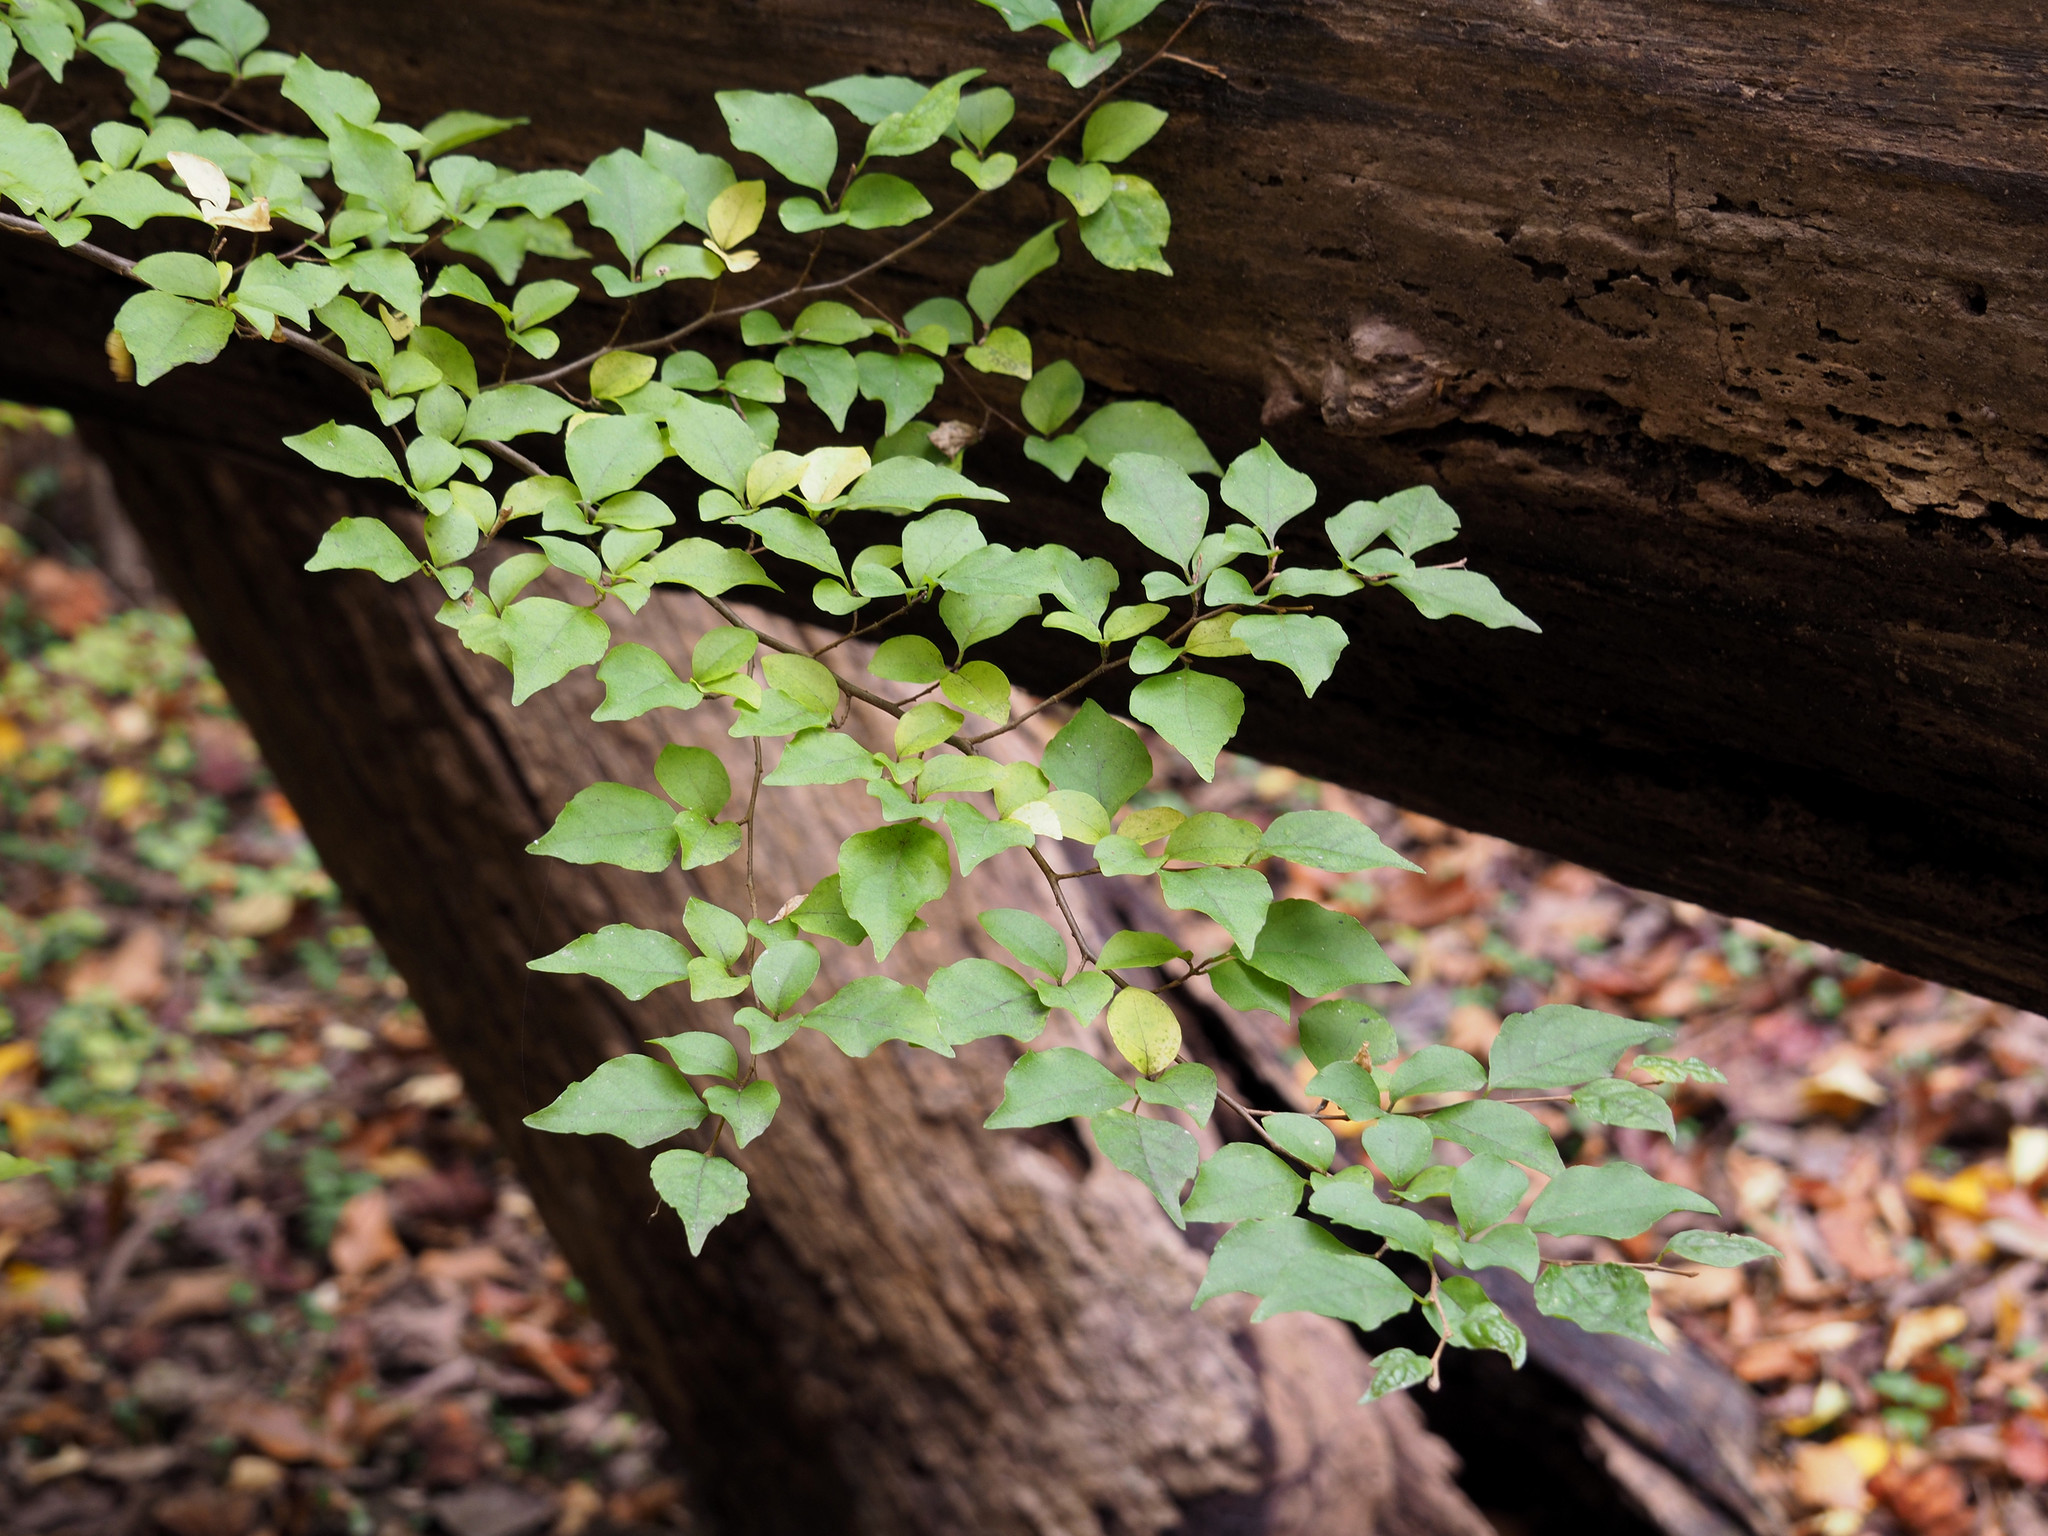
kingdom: Plantae
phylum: Tracheophyta
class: Magnoliopsida
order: Ericales
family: Styracaceae
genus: Styrax
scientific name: Styrax japonicus
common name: Japanese snowbell
